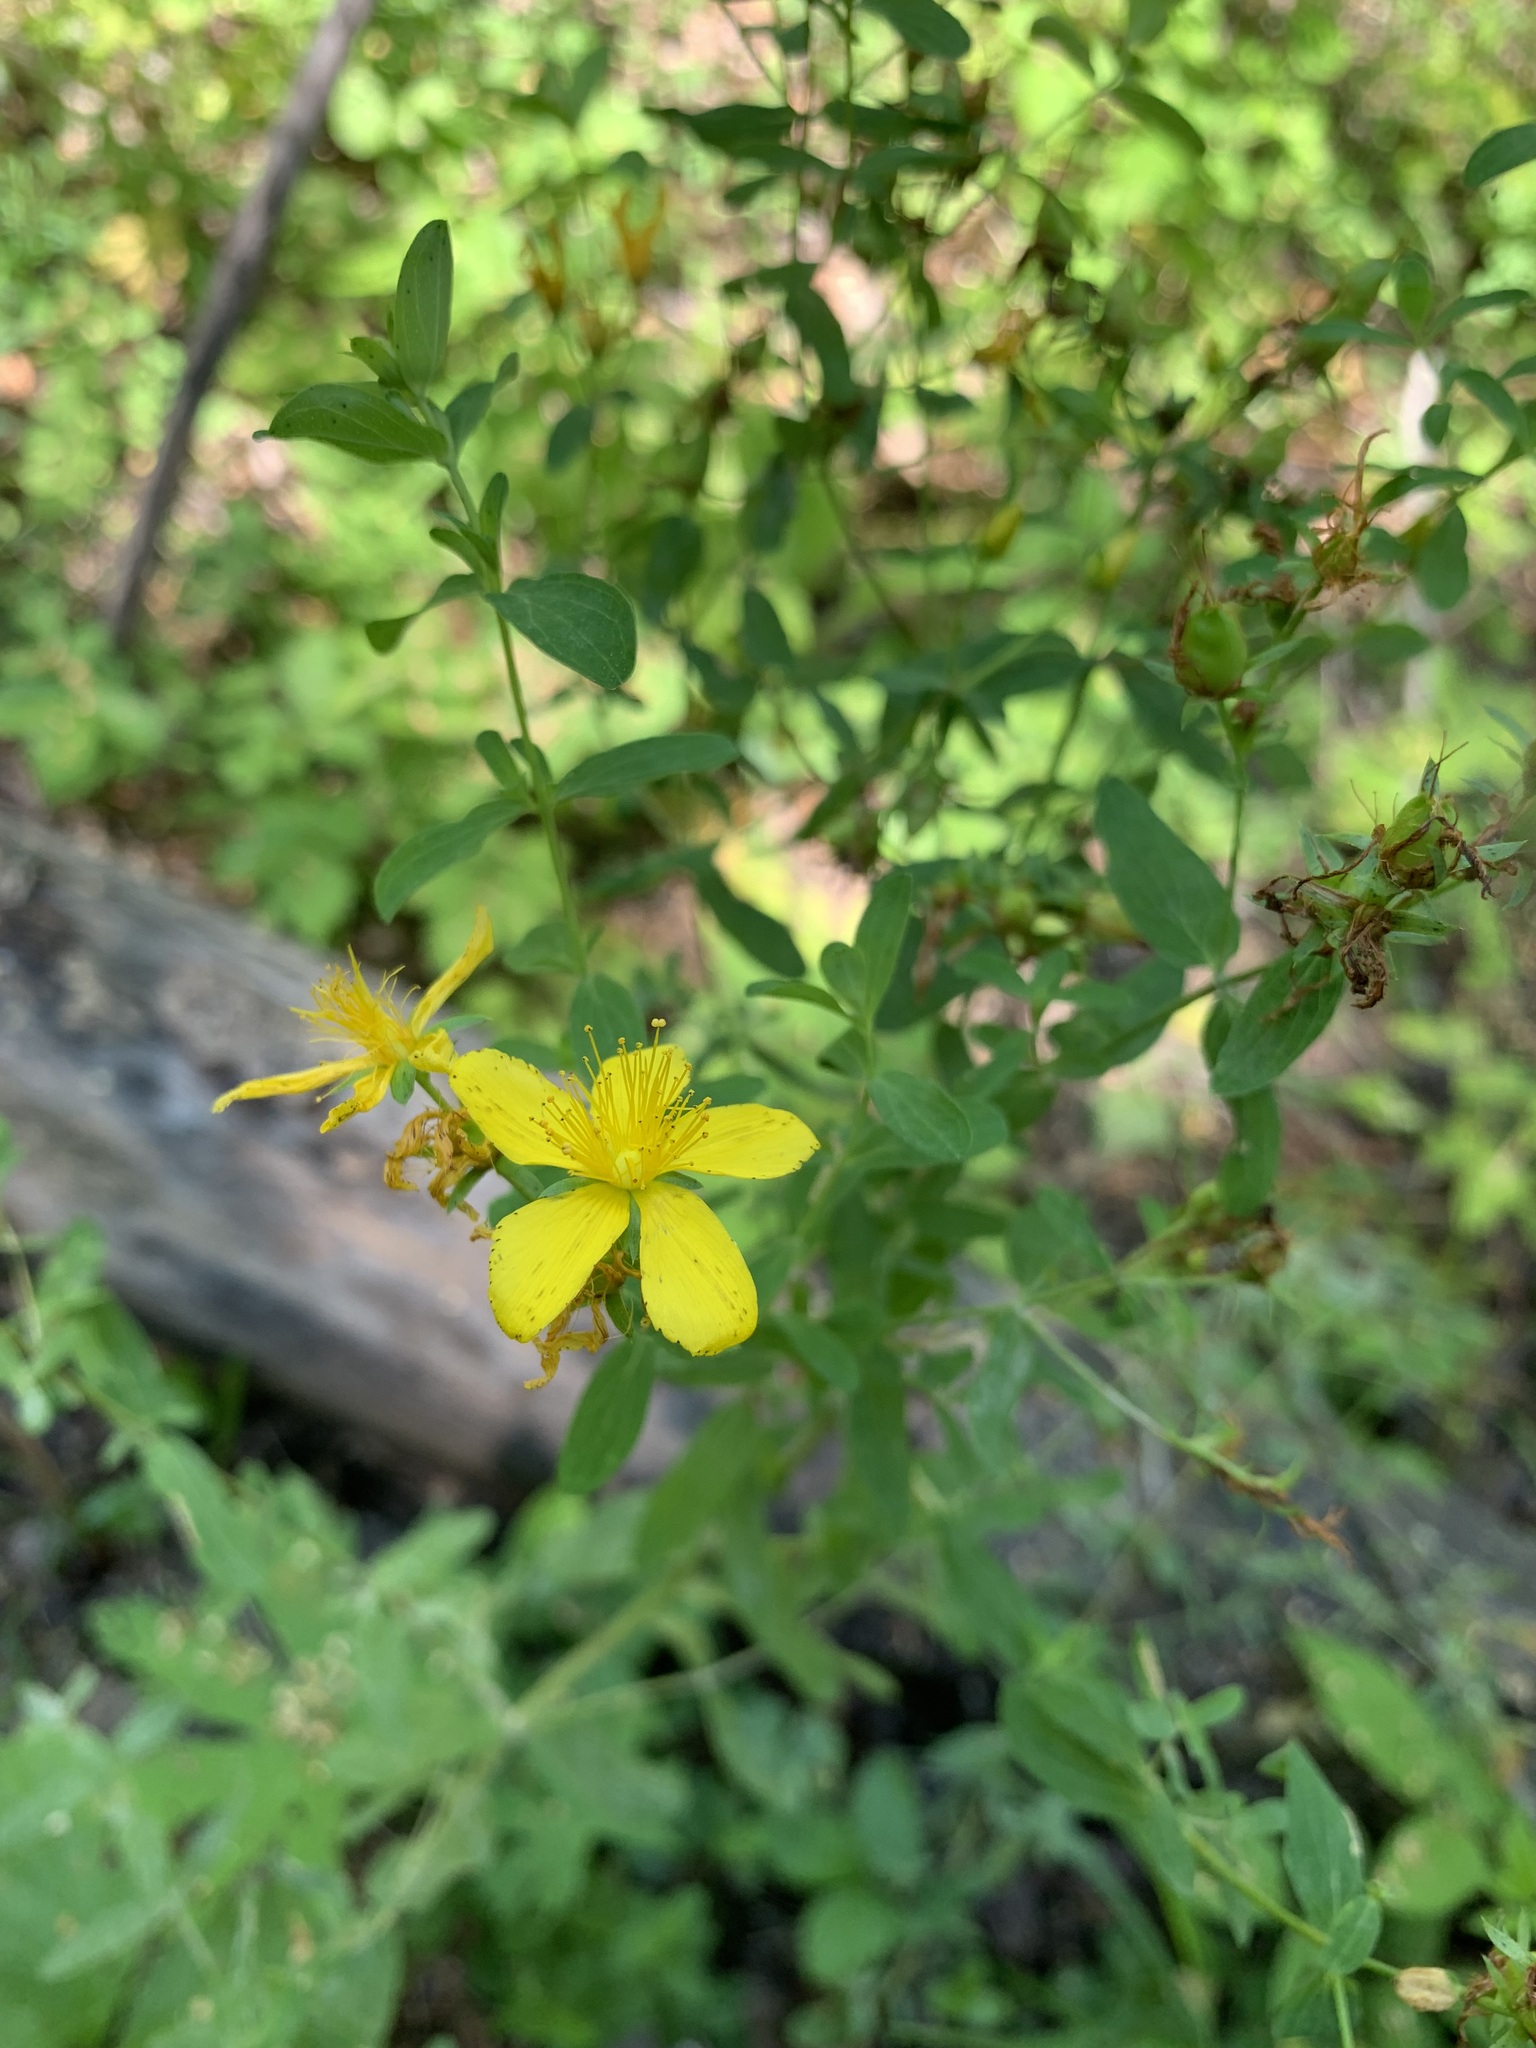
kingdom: Plantae
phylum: Tracheophyta
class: Magnoliopsida
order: Malpighiales
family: Hypericaceae
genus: Hypericum
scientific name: Hypericum perforatum
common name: Common st. johnswort
